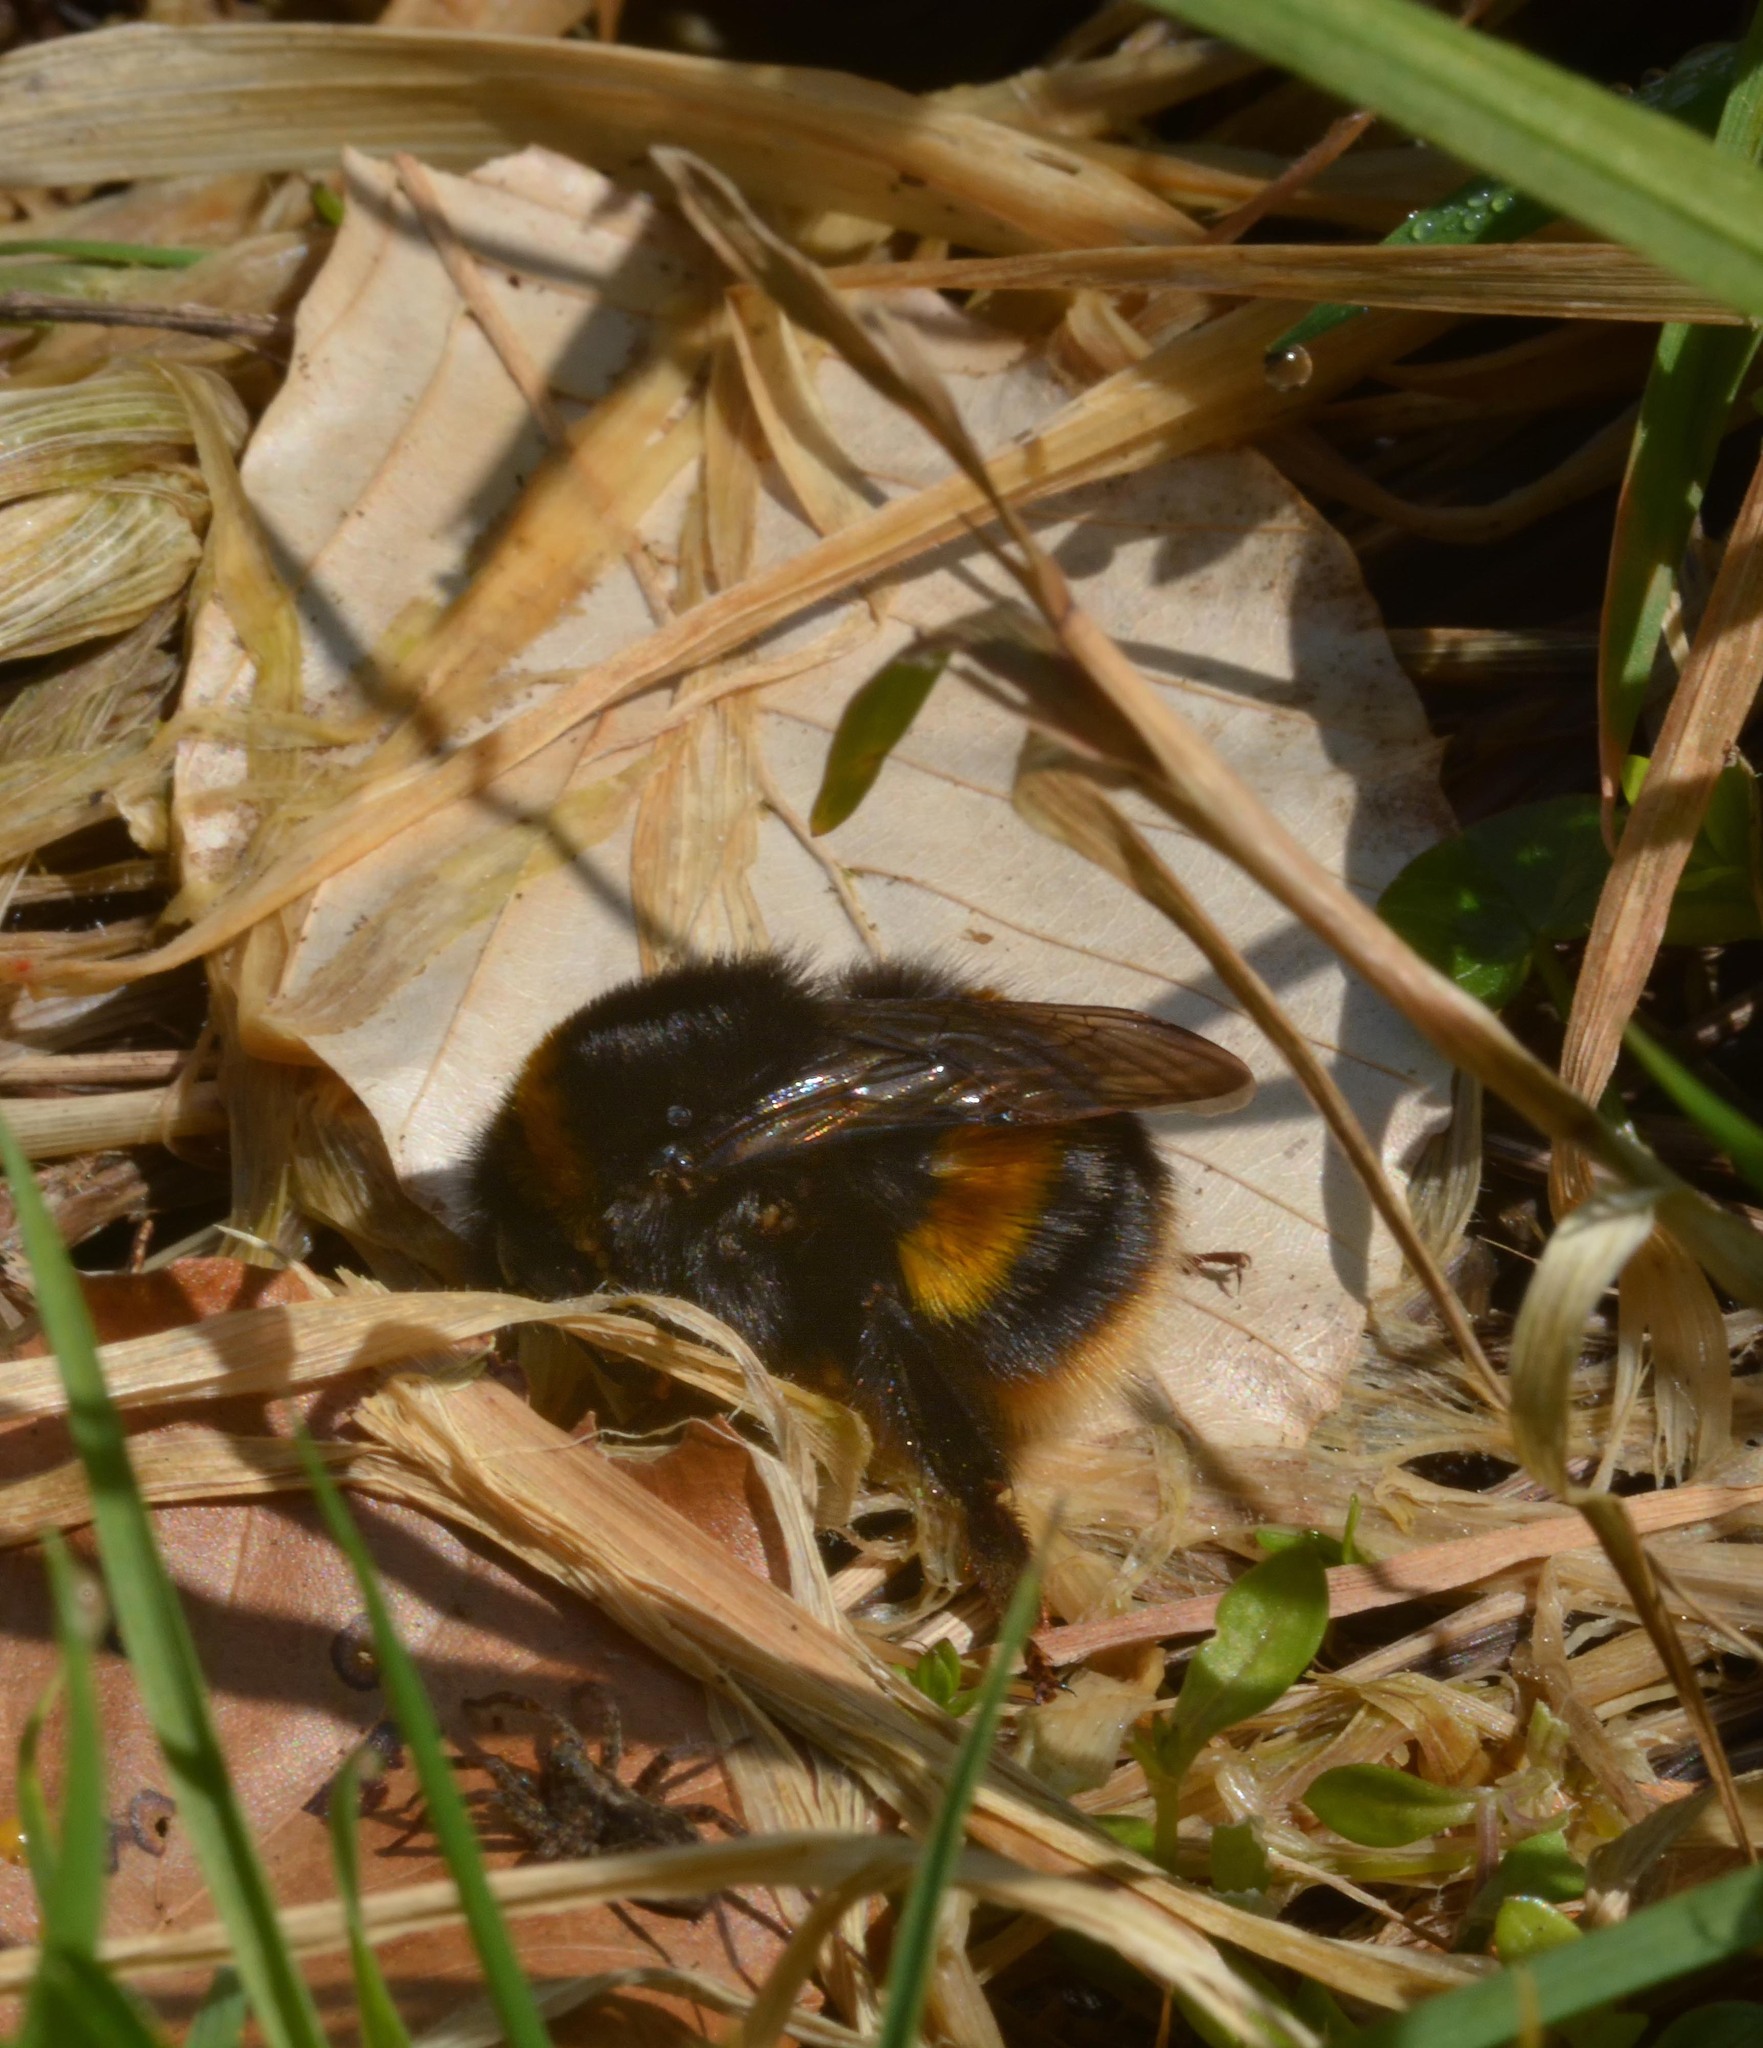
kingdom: Animalia
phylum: Arthropoda
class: Insecta
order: Hymenoptera
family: Apidae
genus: Bombus
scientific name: Bombus terrestris
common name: Buff-tailed bumblebee
